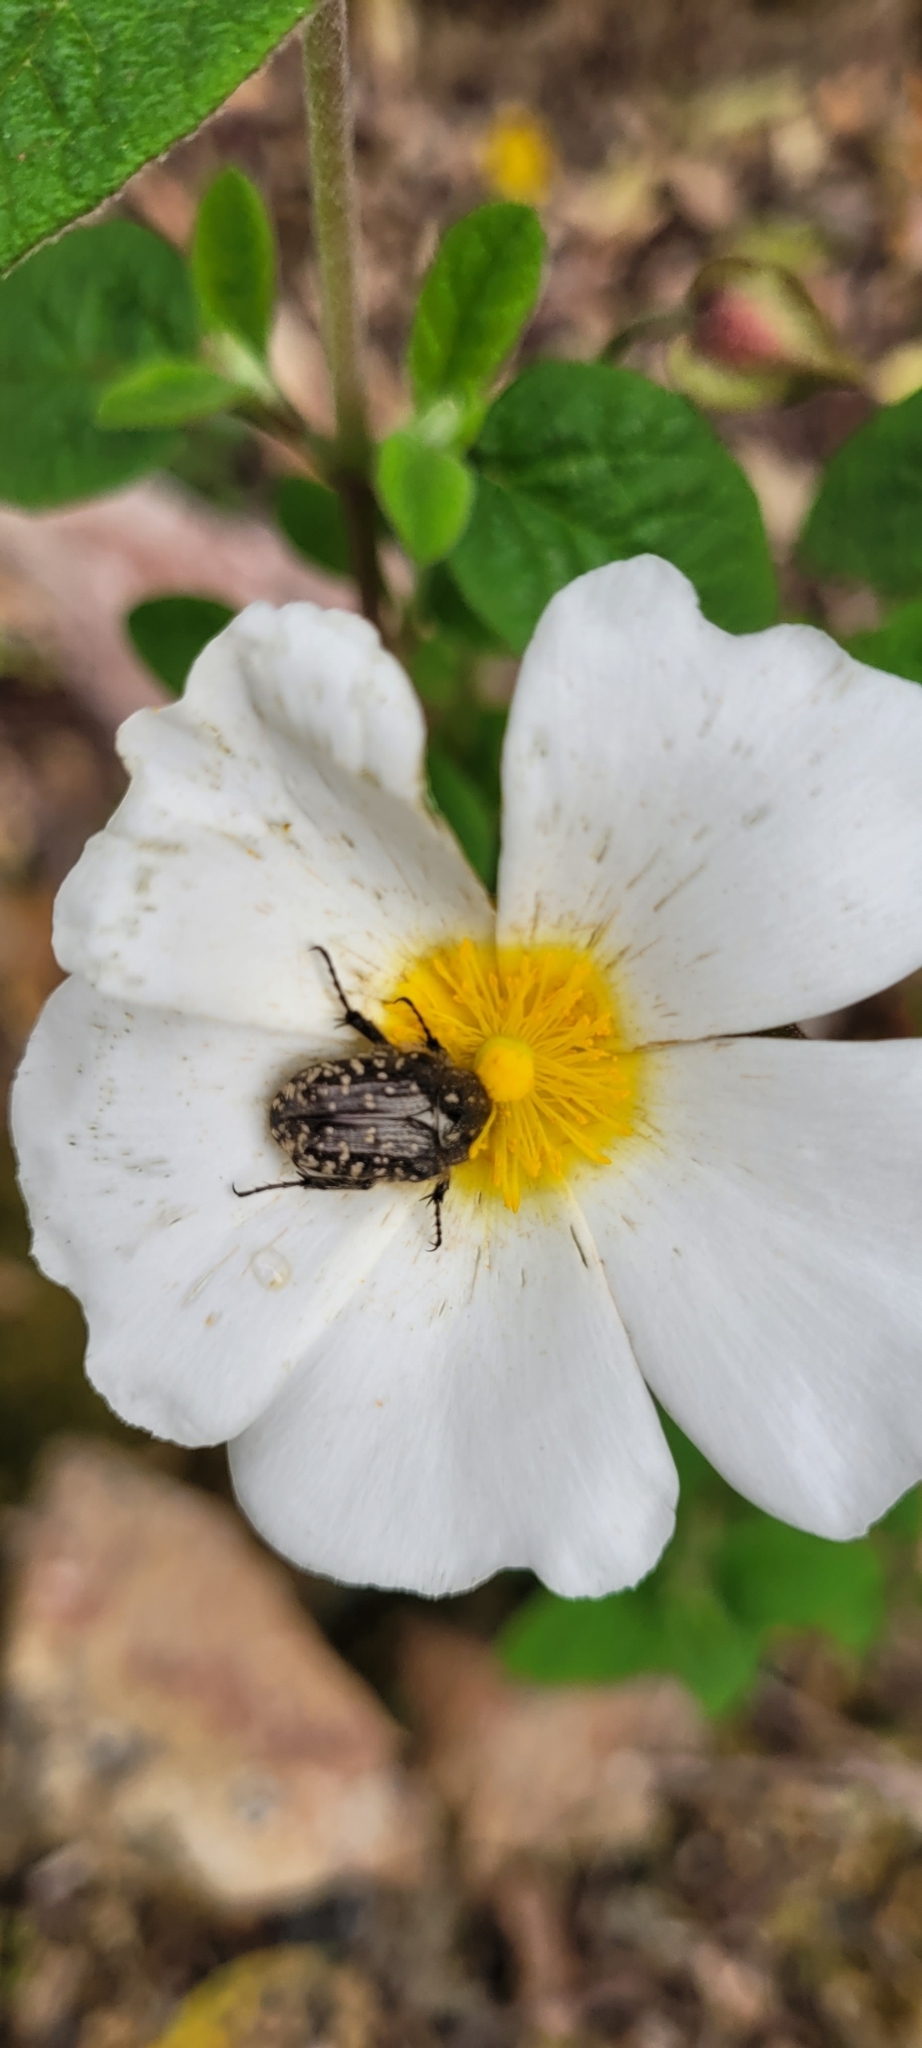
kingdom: Animalia
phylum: Arthropoda
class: Insecta
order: Coleoptera
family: Scarabaeidae
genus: Oxythyrea
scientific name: Oxythyrea funesta
